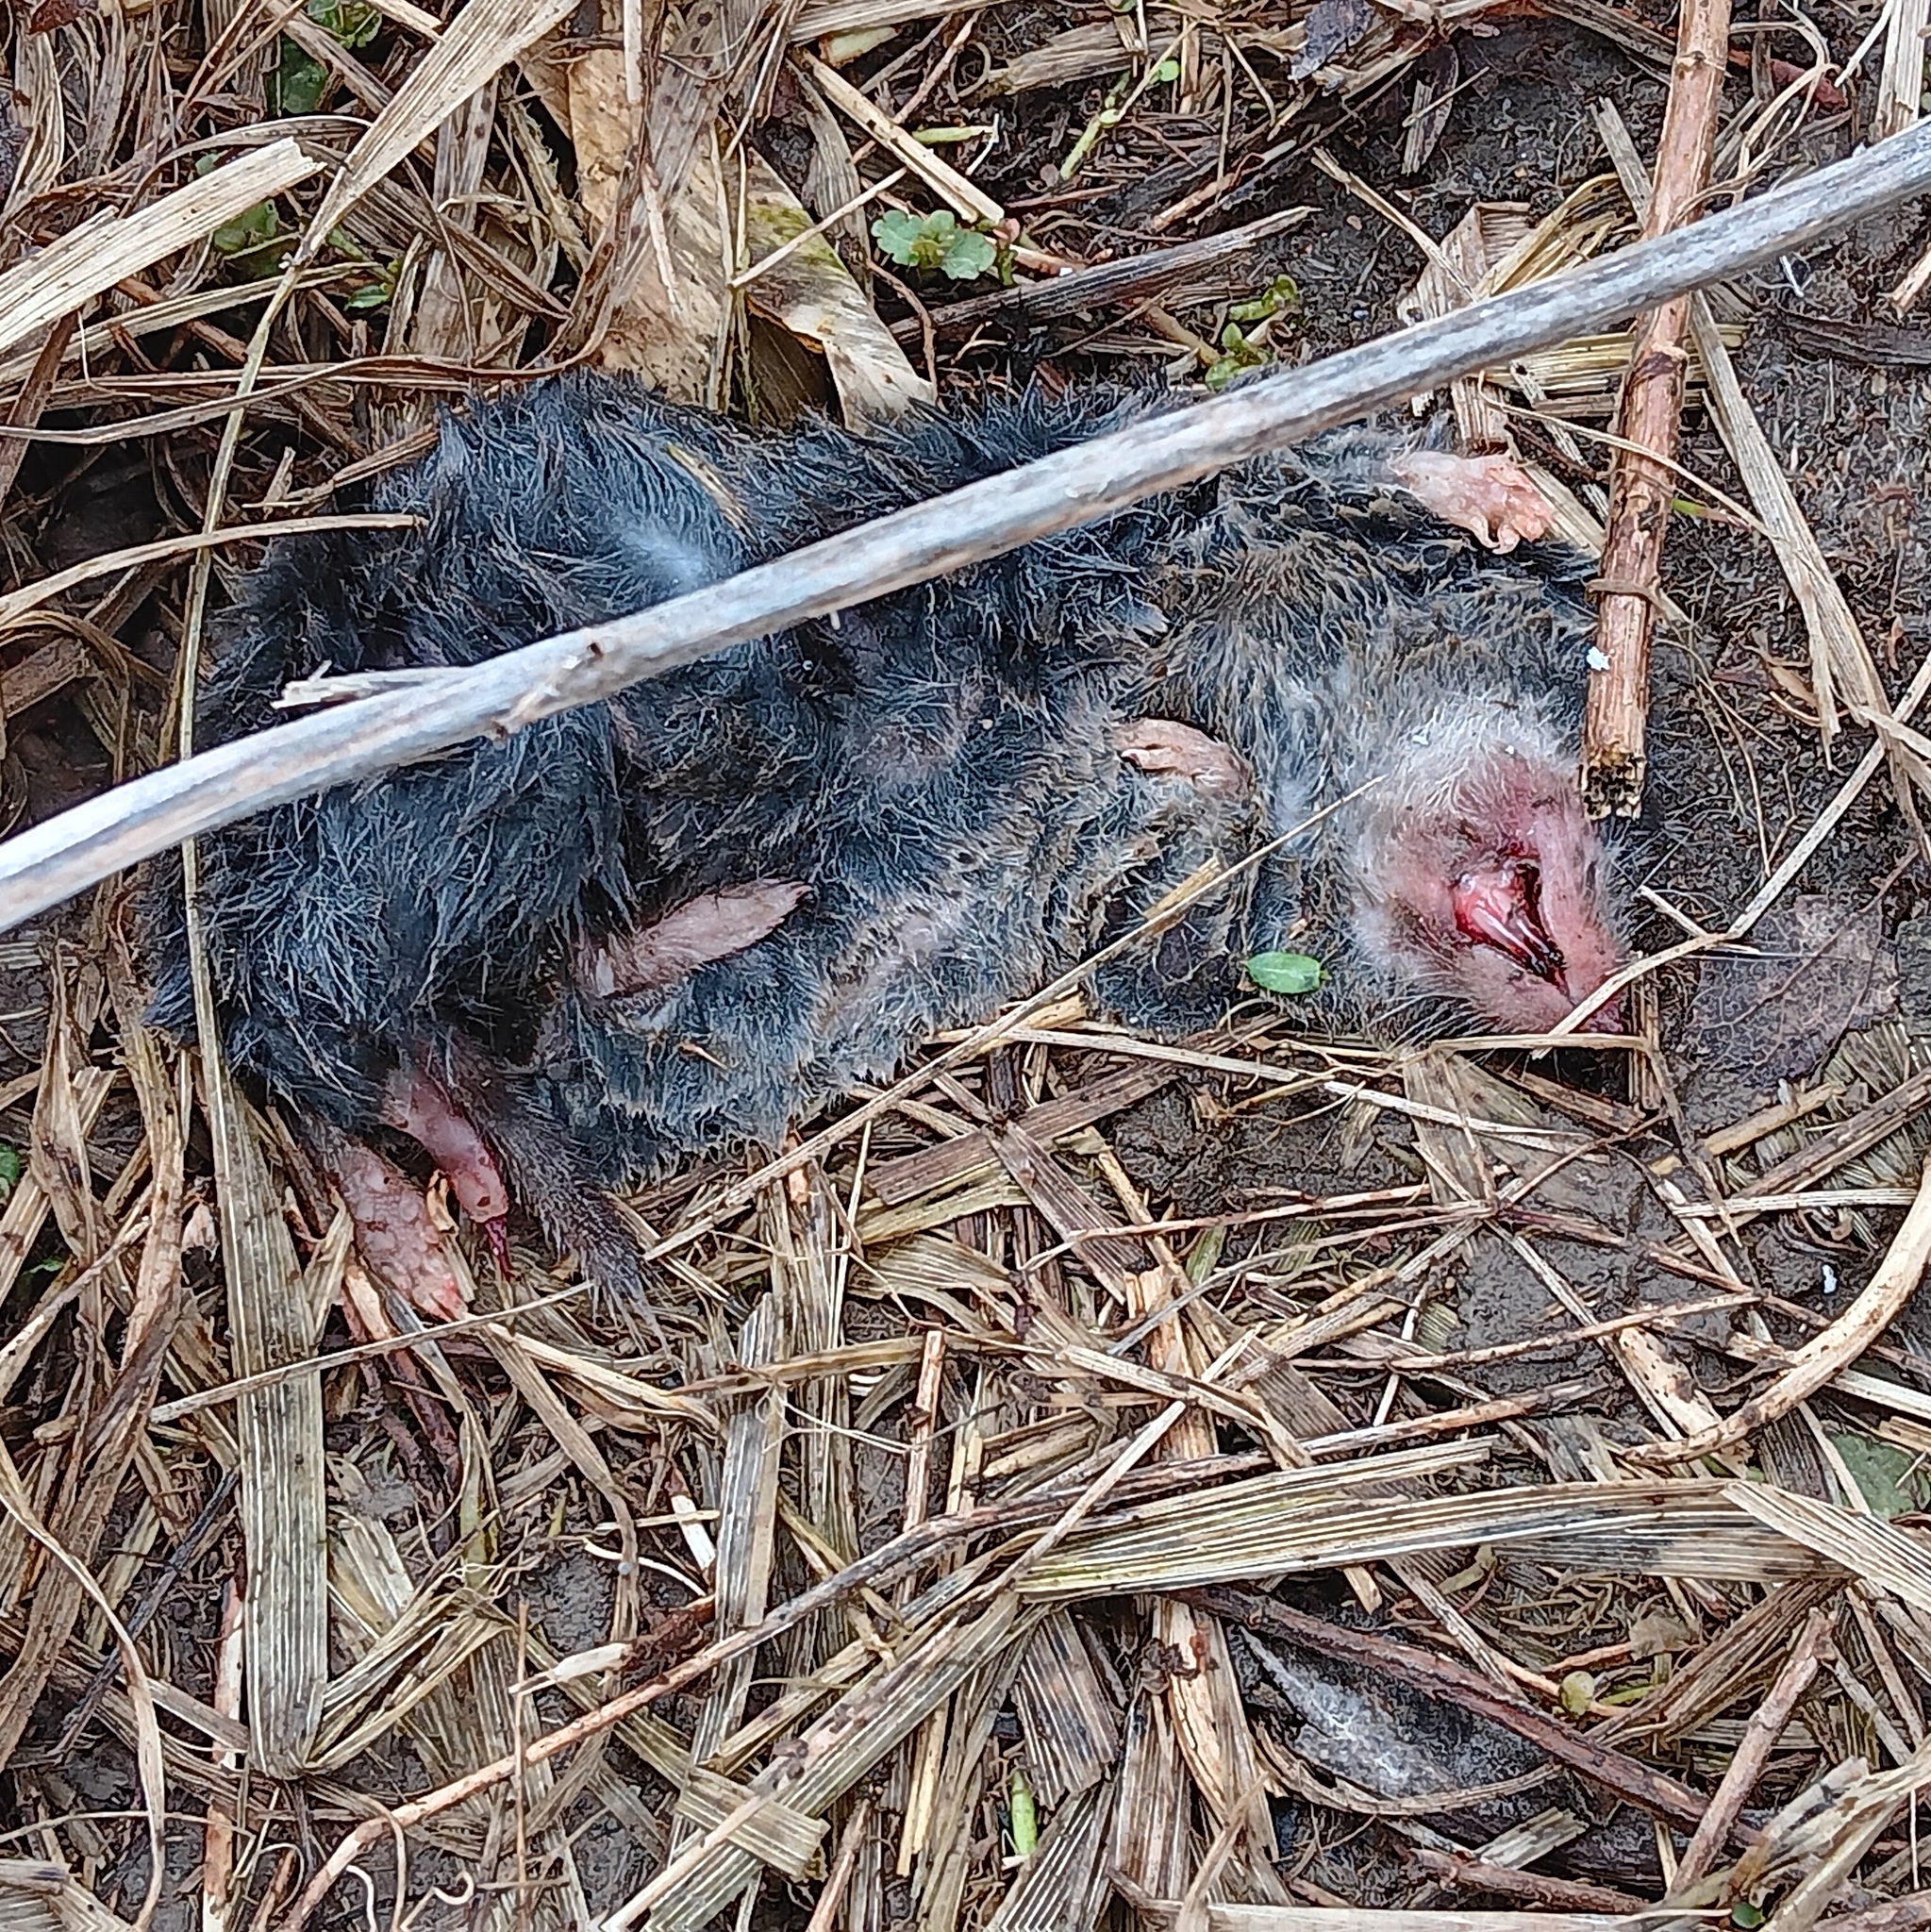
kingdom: Animalia
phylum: Chordata
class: Mammalia
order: Soricomorpha
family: Soricidae
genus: Blarina
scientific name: Blarina brevicauda
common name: Northern short-tailed shrew
